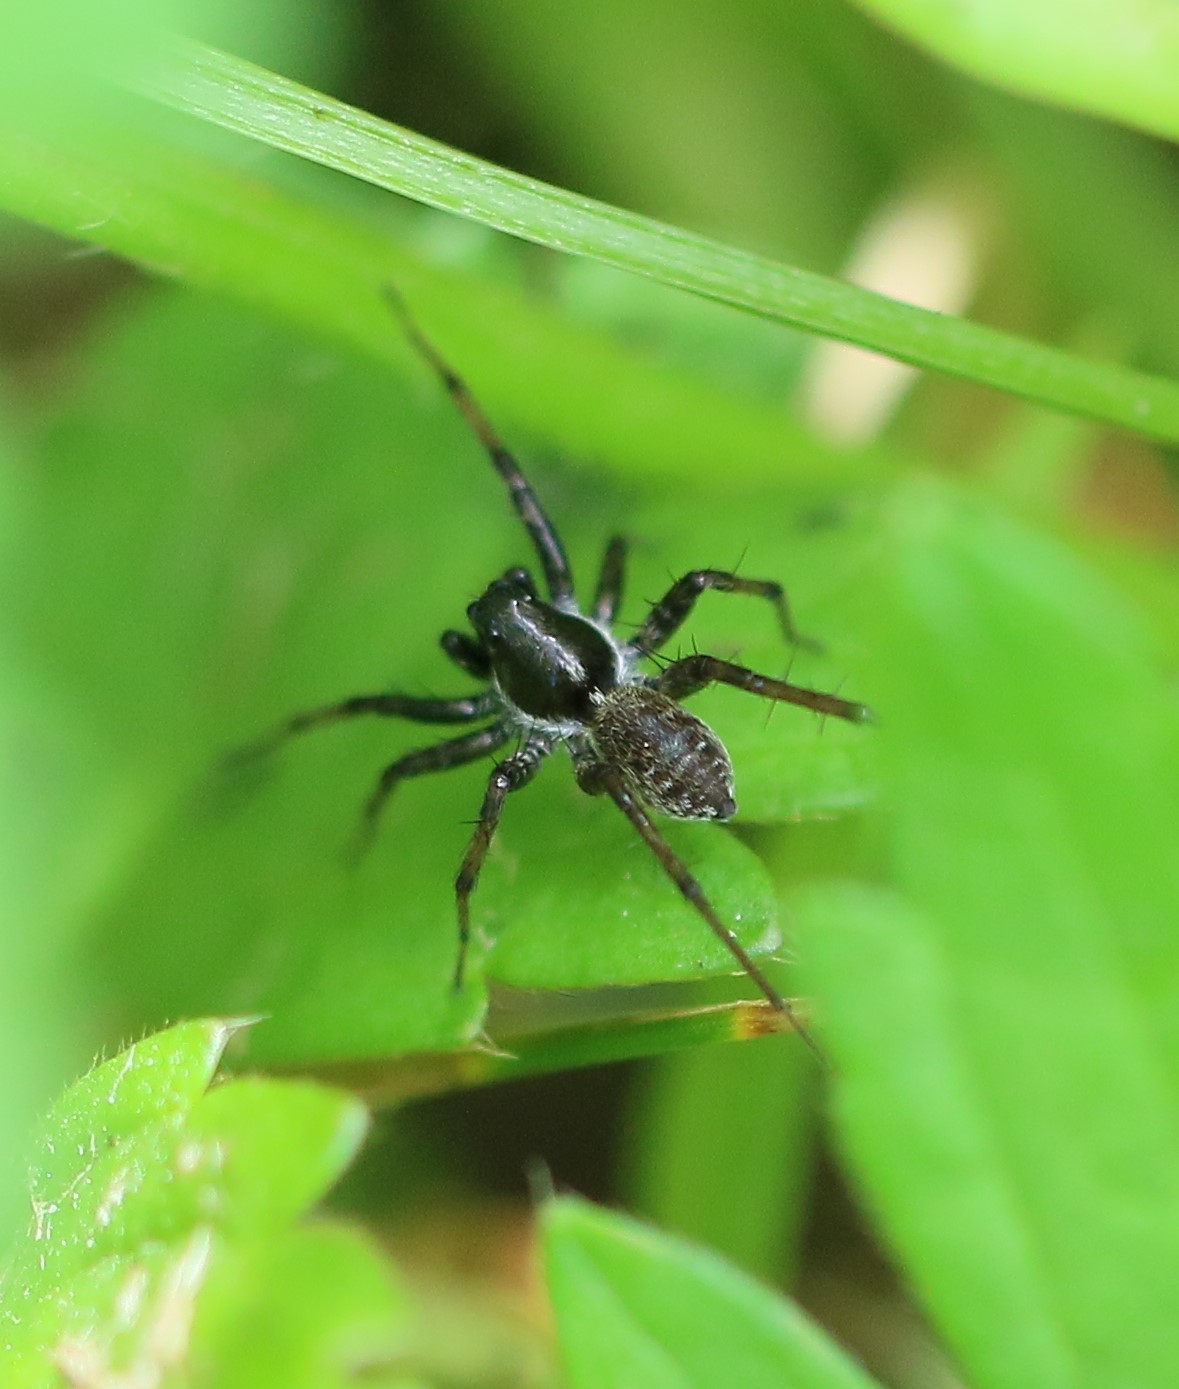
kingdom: Animalia
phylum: Arthropoda
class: Arachnida
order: Araneae
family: Lycosidae
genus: Pardosa
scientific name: Pardosa moesta
